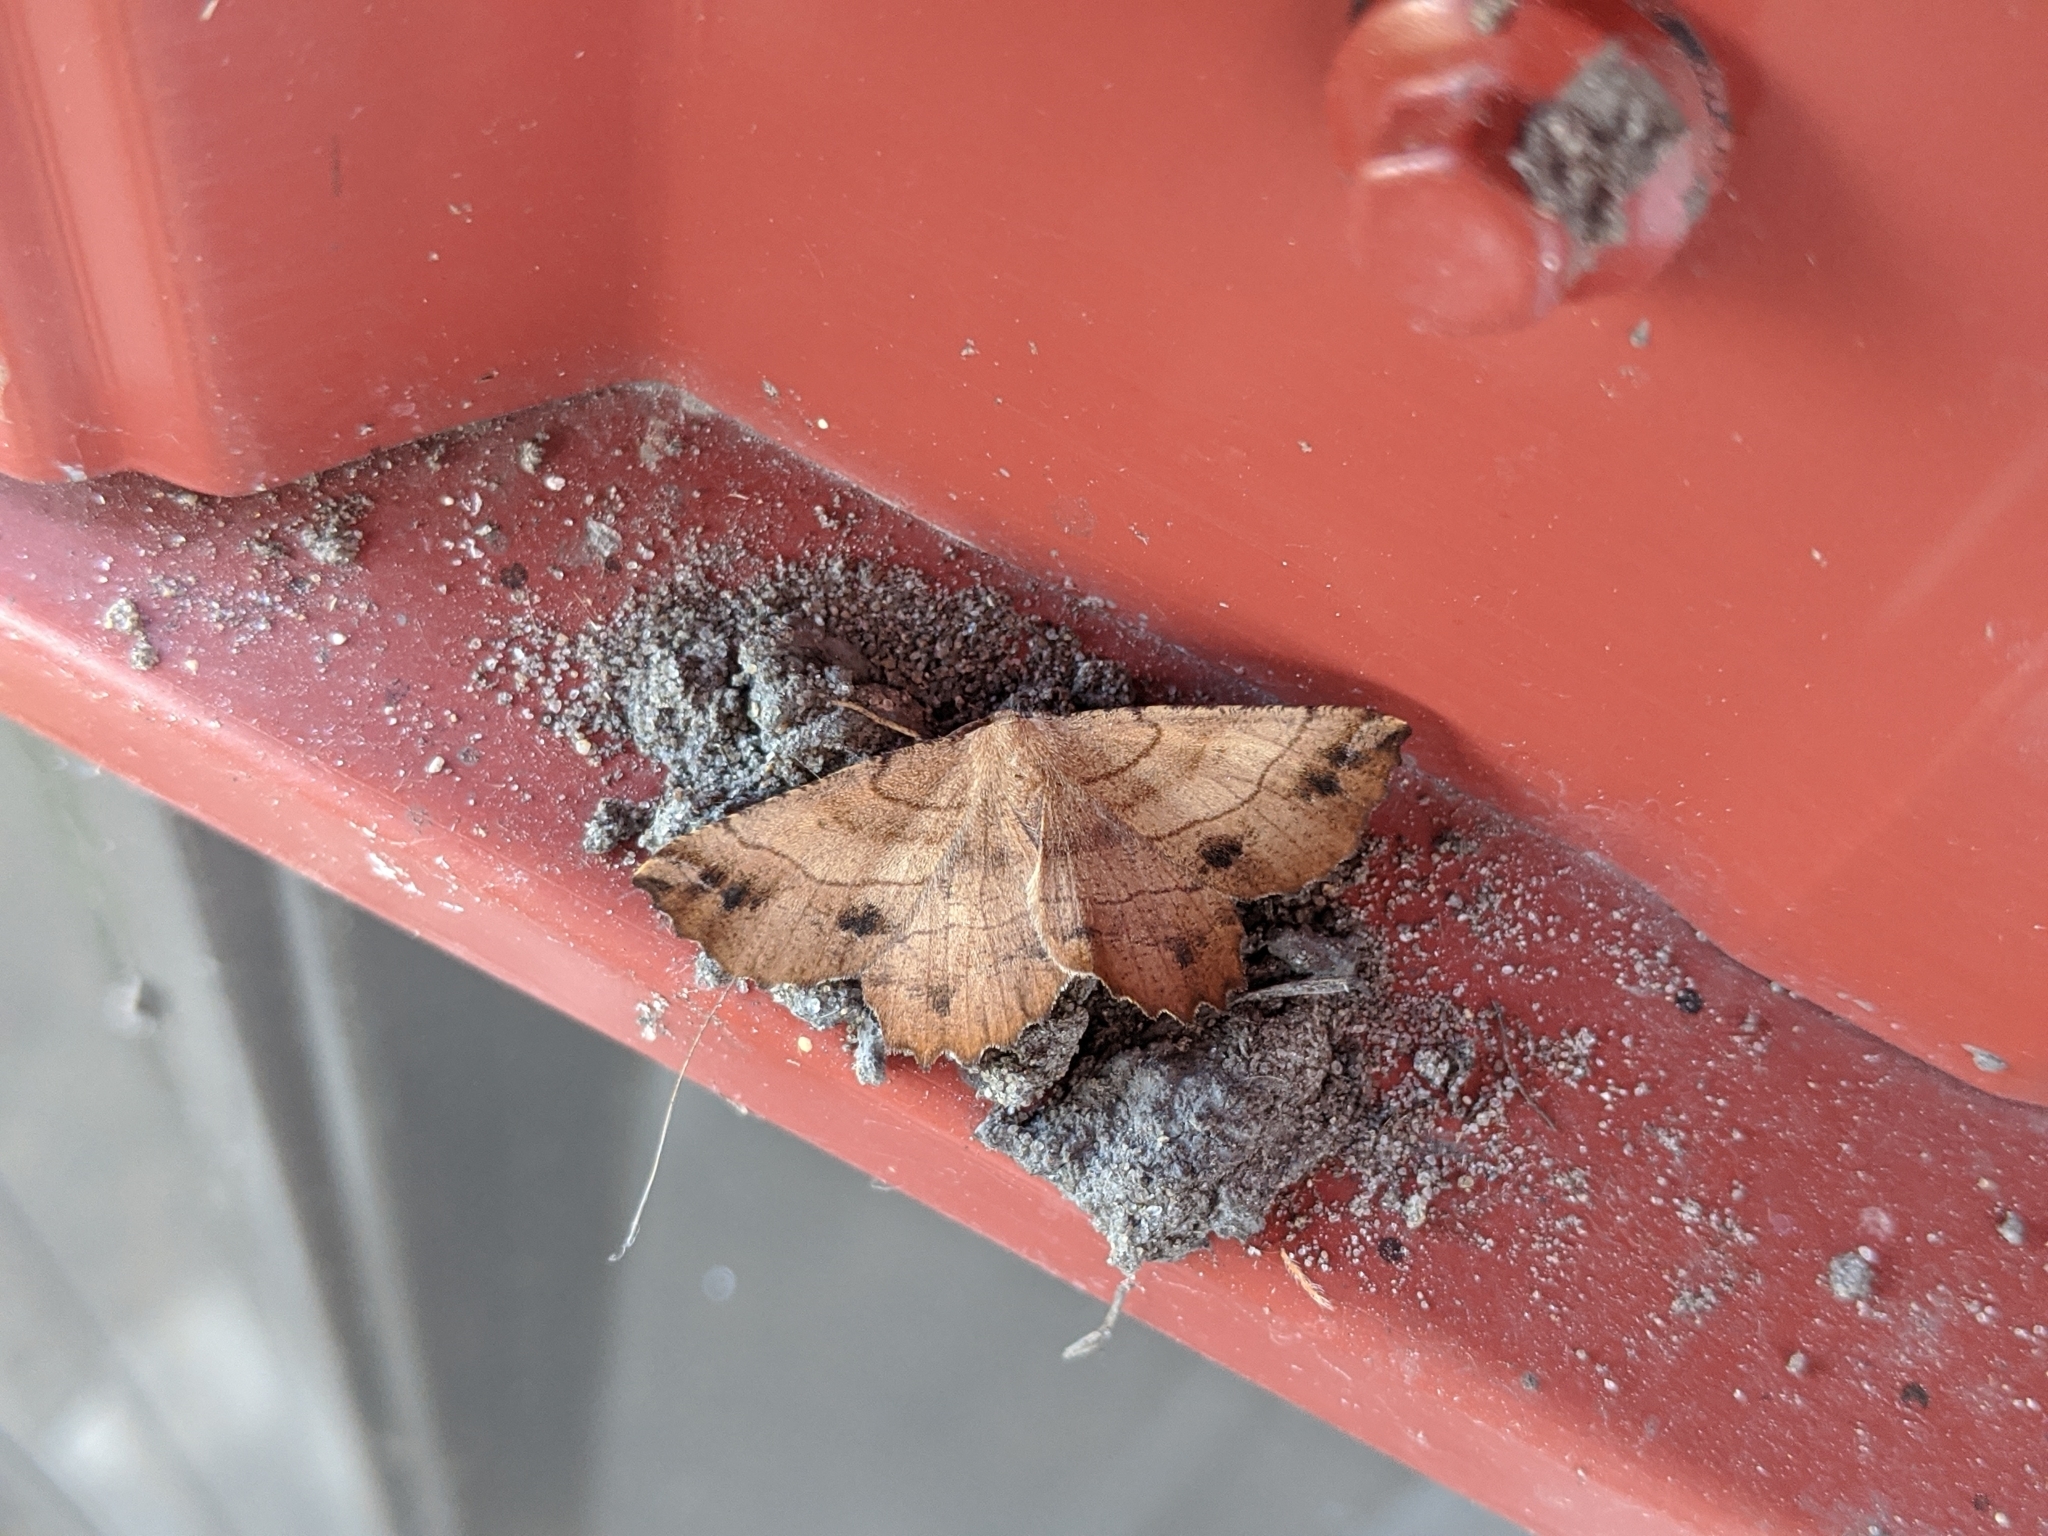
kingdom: Animalia
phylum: Arthropoda
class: Insecta
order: Lepidoptera
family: Geometridae
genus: Euchlaena
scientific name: Euchlaena johnsonaria
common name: Johnson's euchlaena
